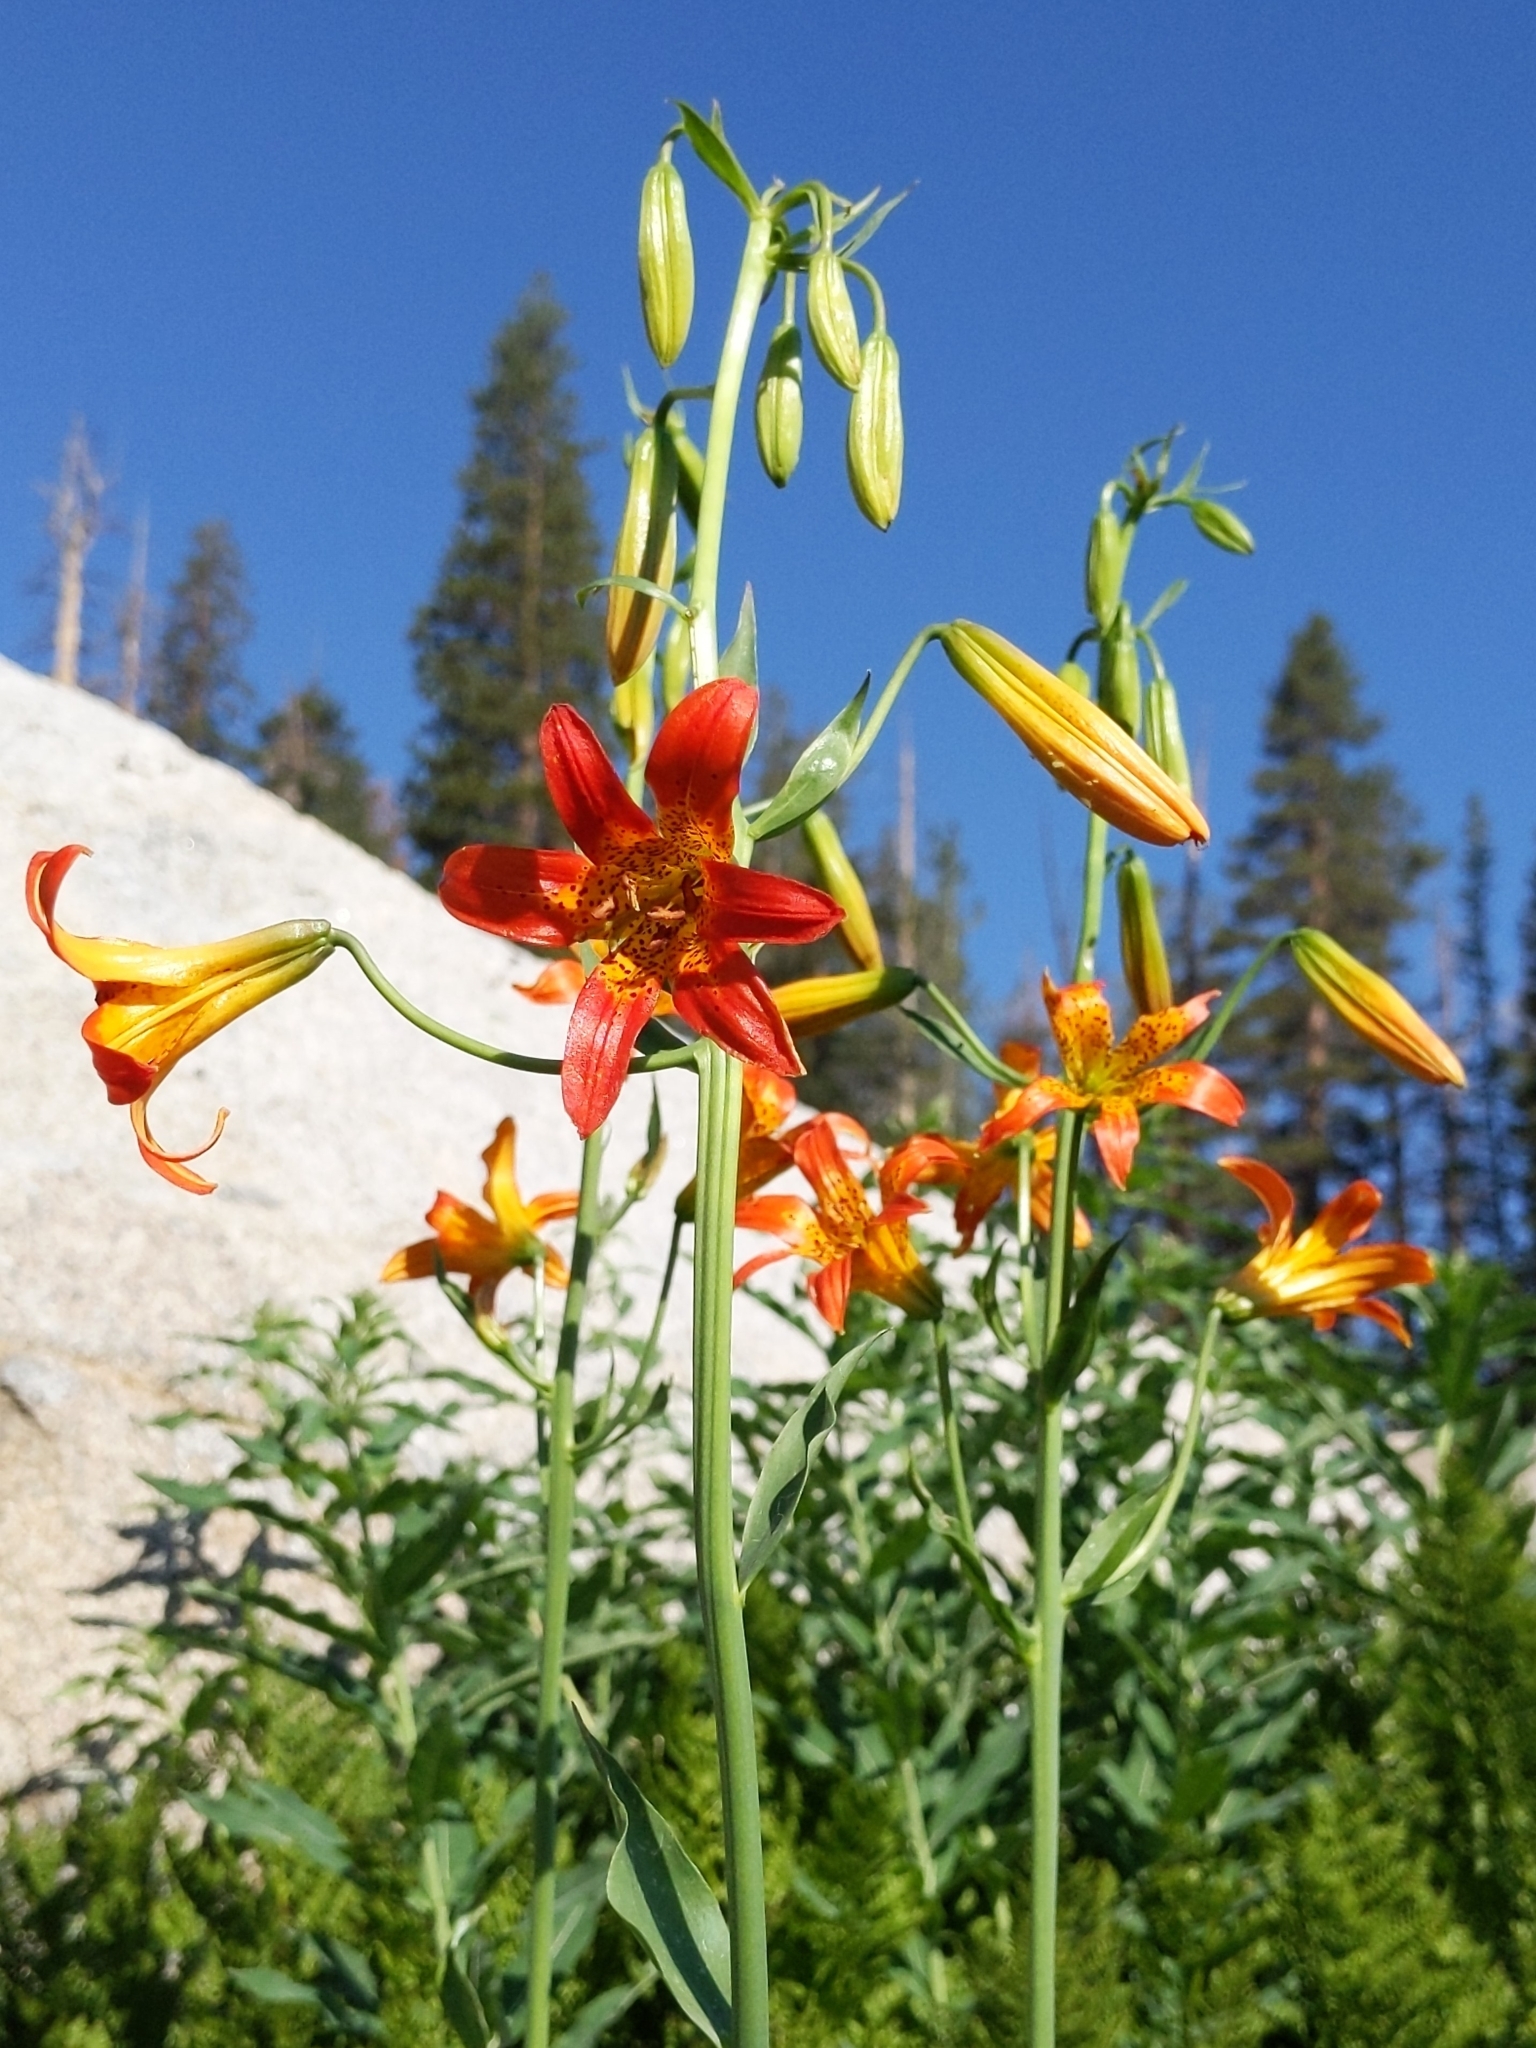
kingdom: Plantae
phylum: Tracheophyta
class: Liliopsida
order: Liliales
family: Liliaceae
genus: Lilium
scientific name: Lilium parvum
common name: Alpine lily
